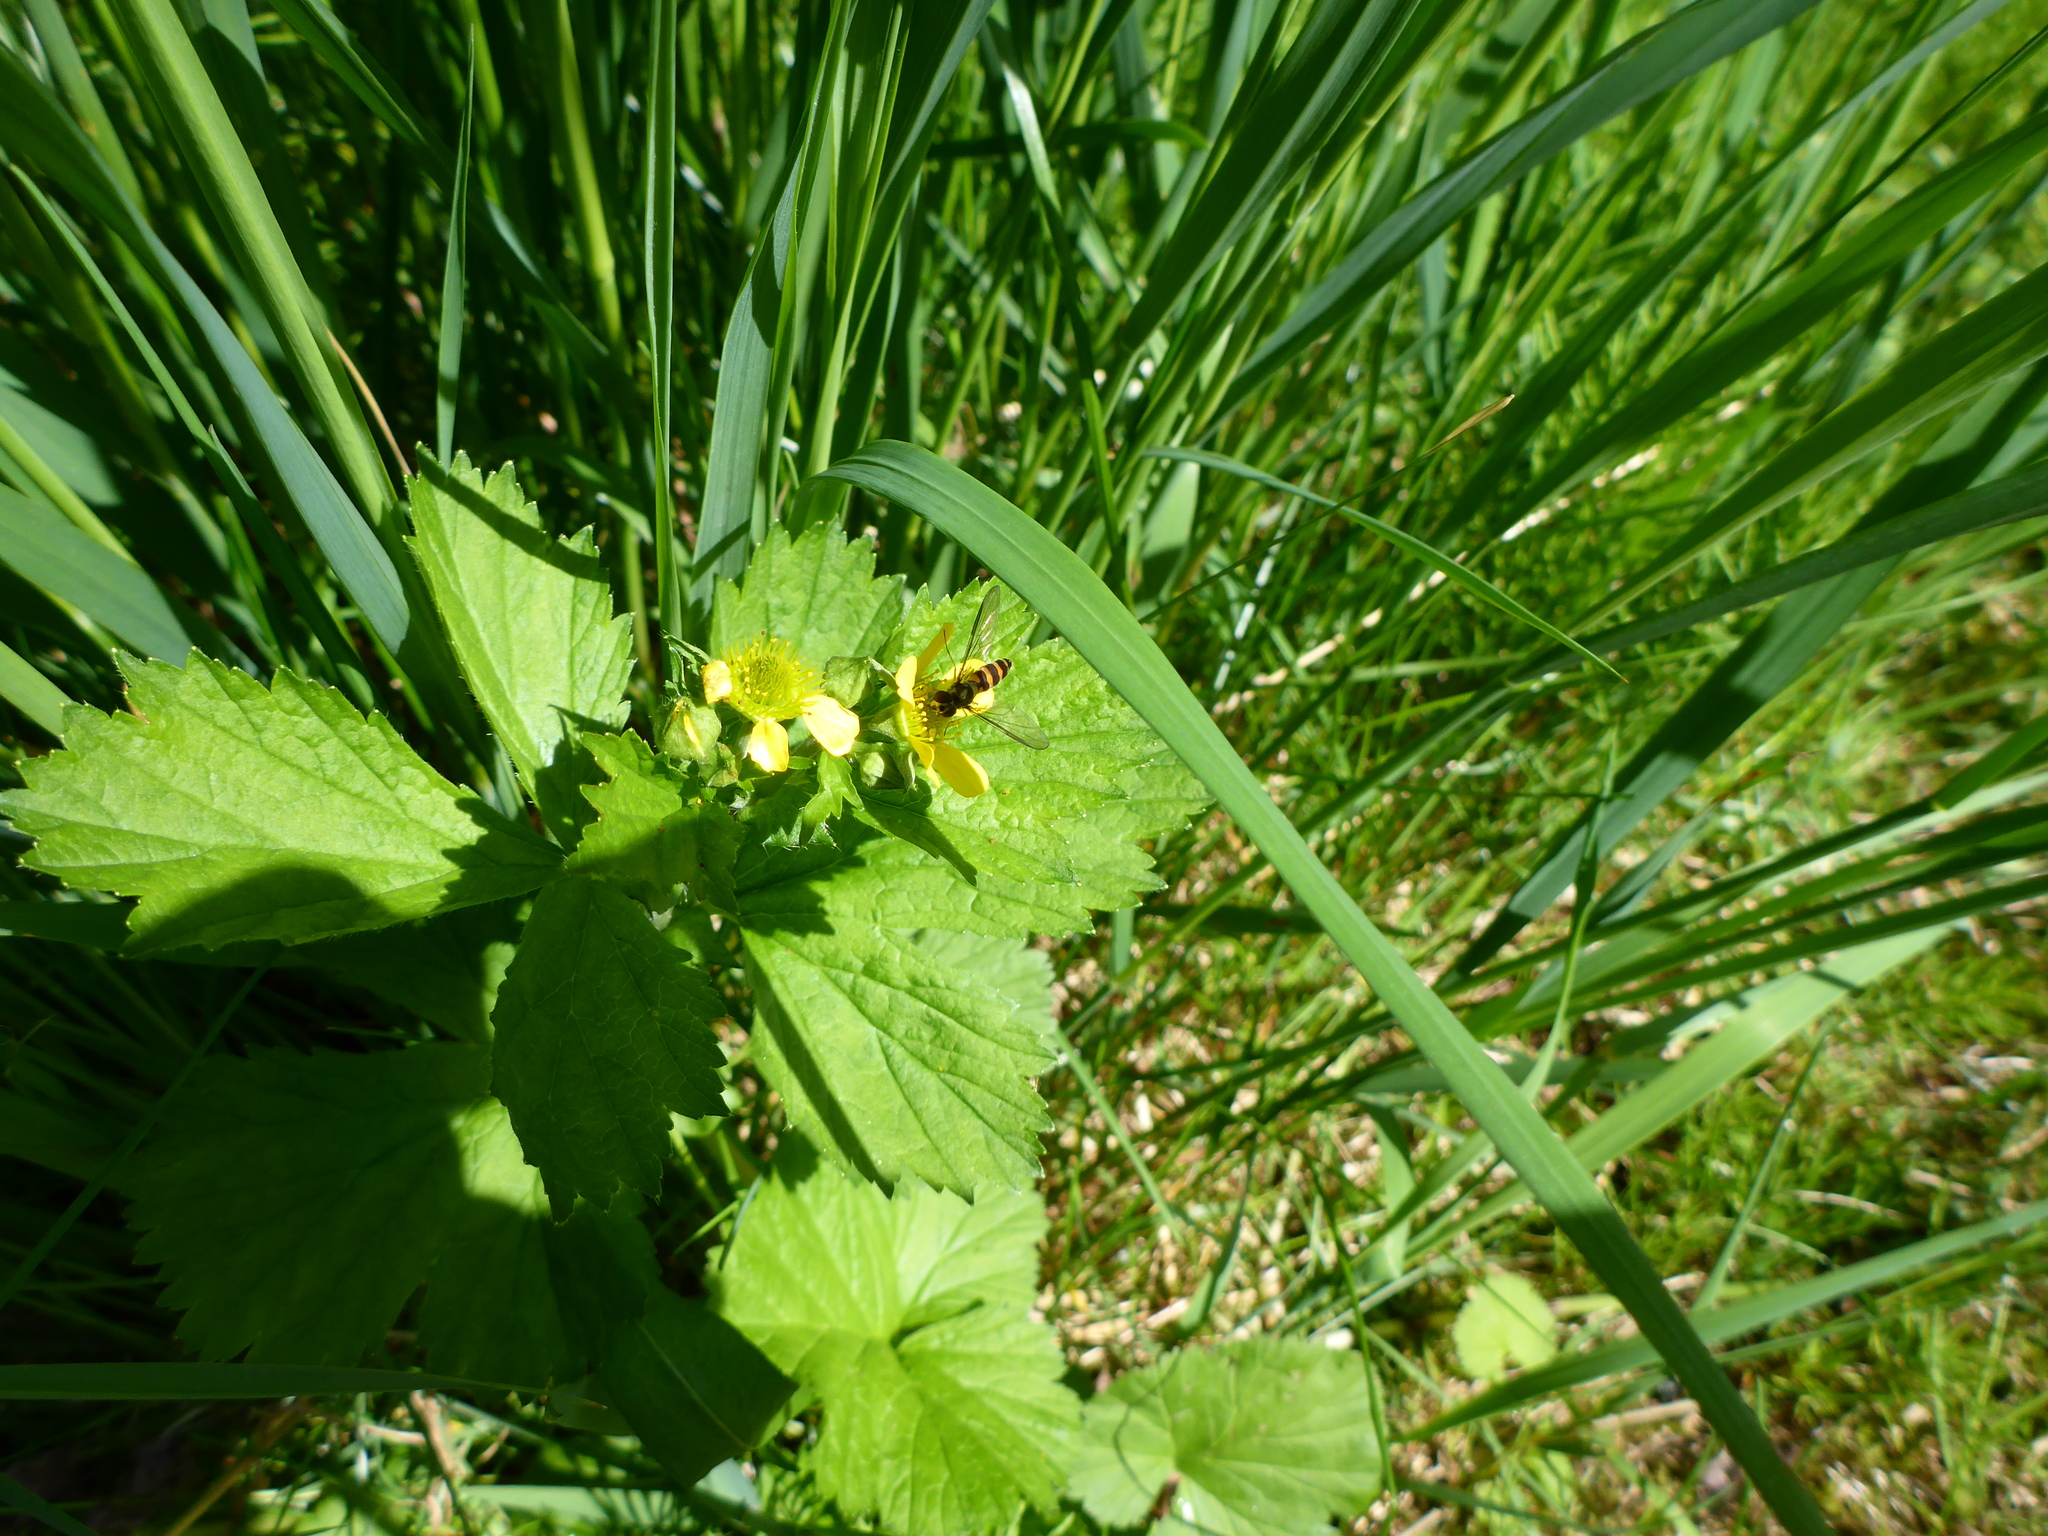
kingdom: Animalia
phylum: Arthropoda
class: Insecta
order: Diptera
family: Syrphidae
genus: Meliscaeva
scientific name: Meliscaeva cinctella
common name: American thintail fly
